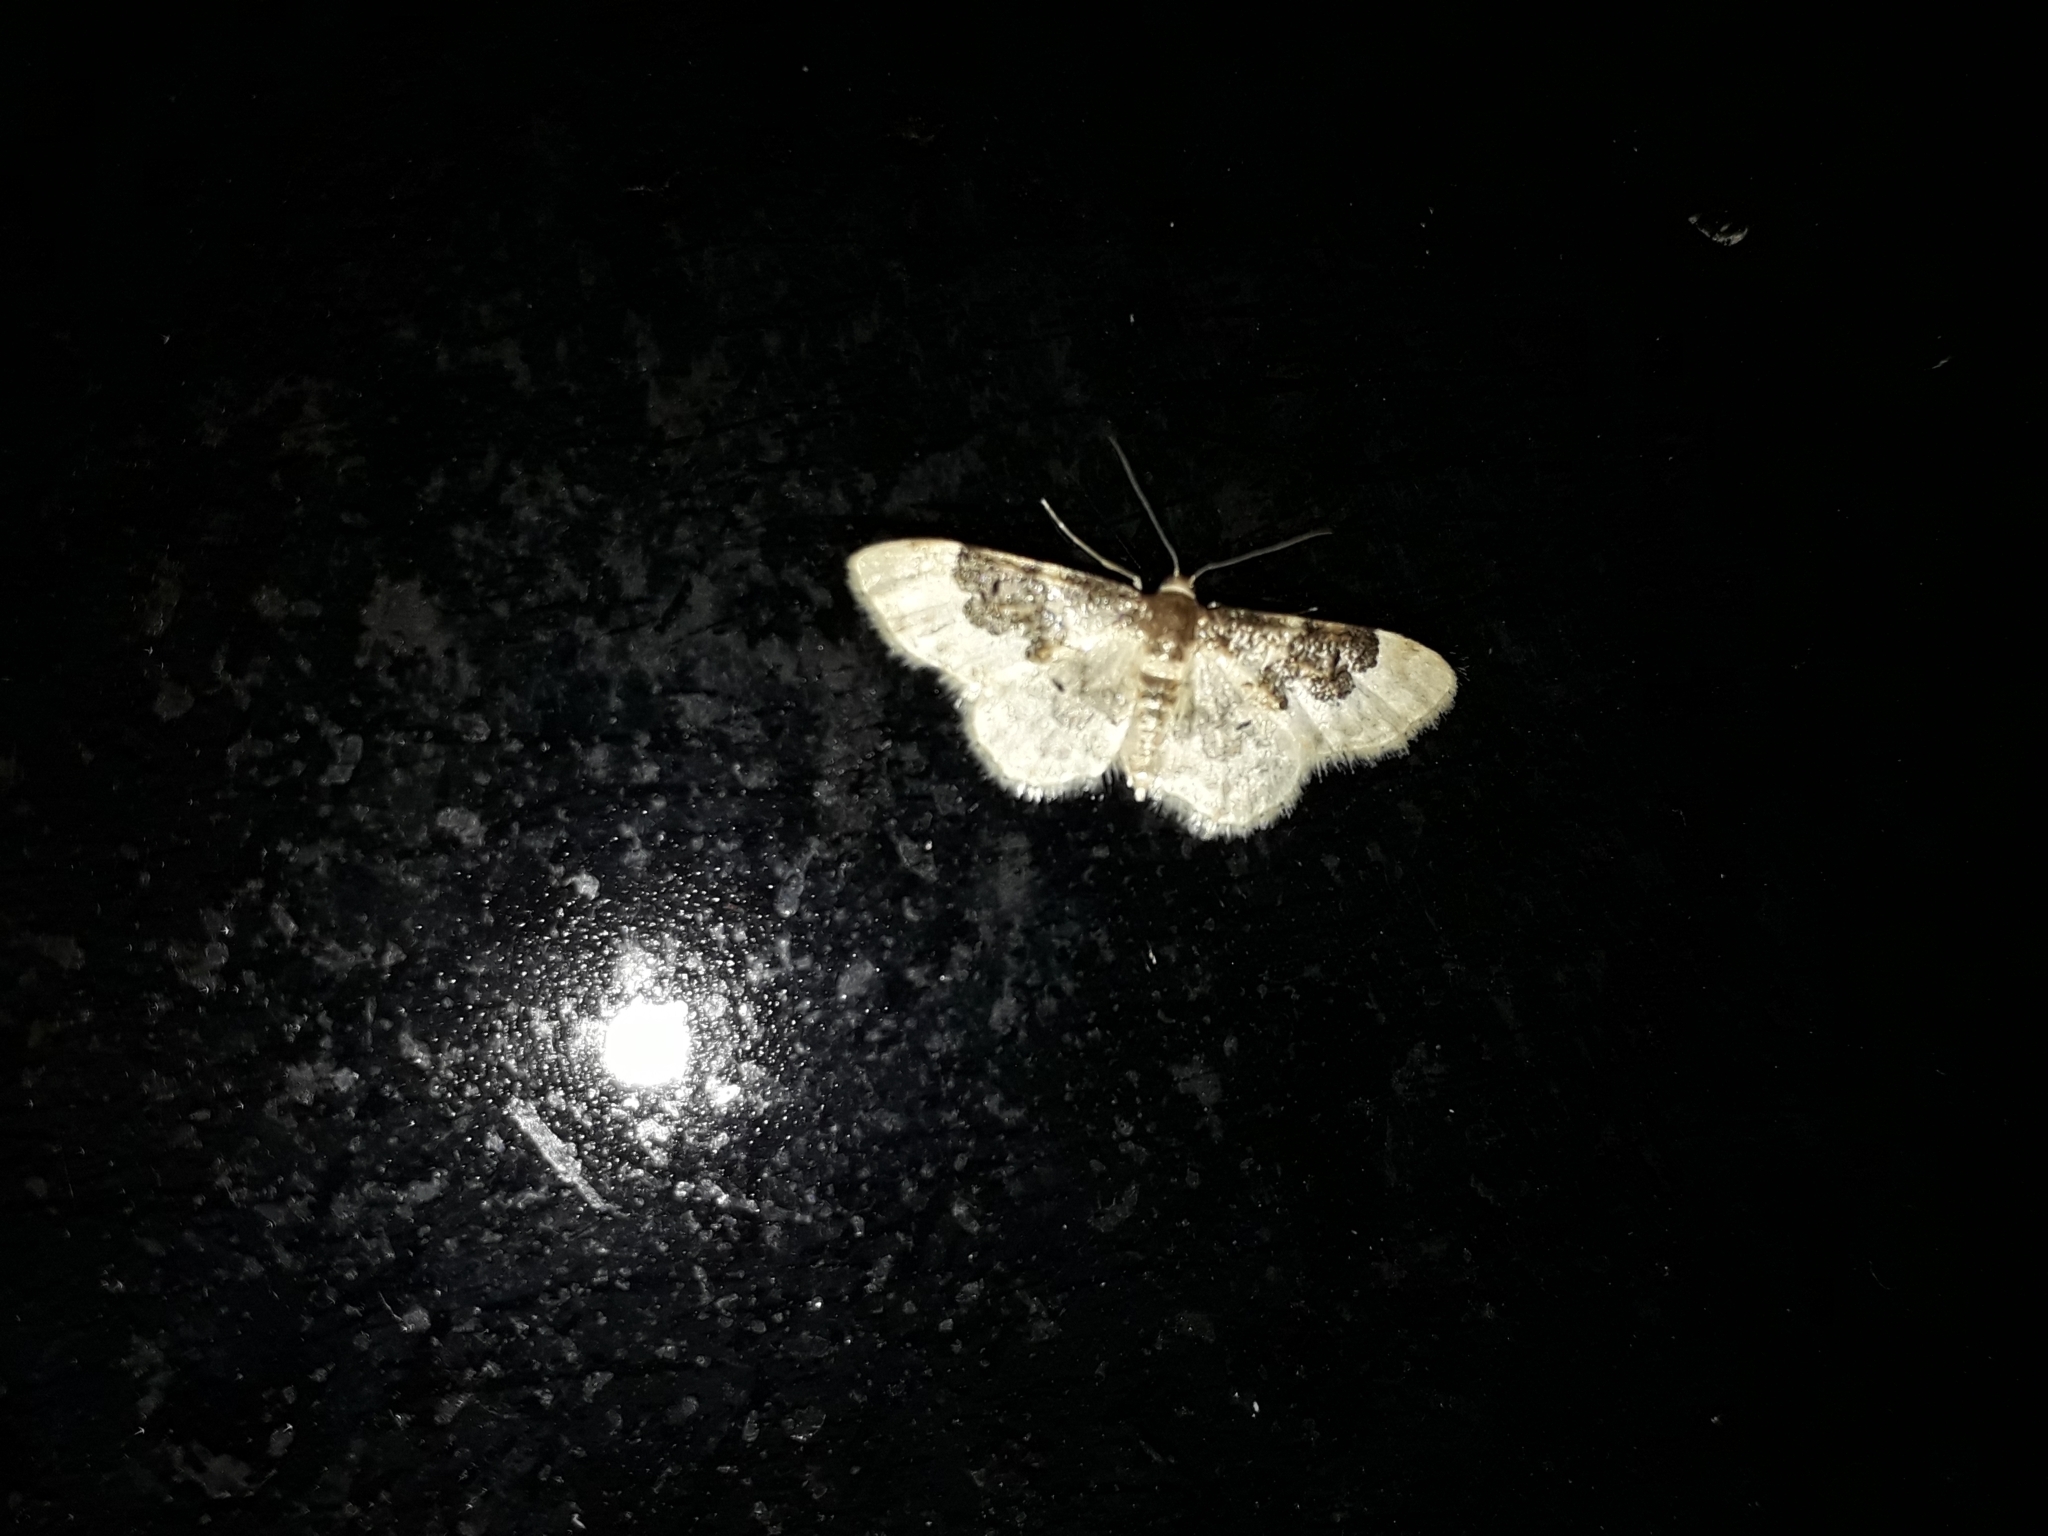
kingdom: Animalia
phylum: Arthropoda
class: Insecta
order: Lepidoptera
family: Geometridae
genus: Idaea
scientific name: Idaea rusticata
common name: Least carpet
